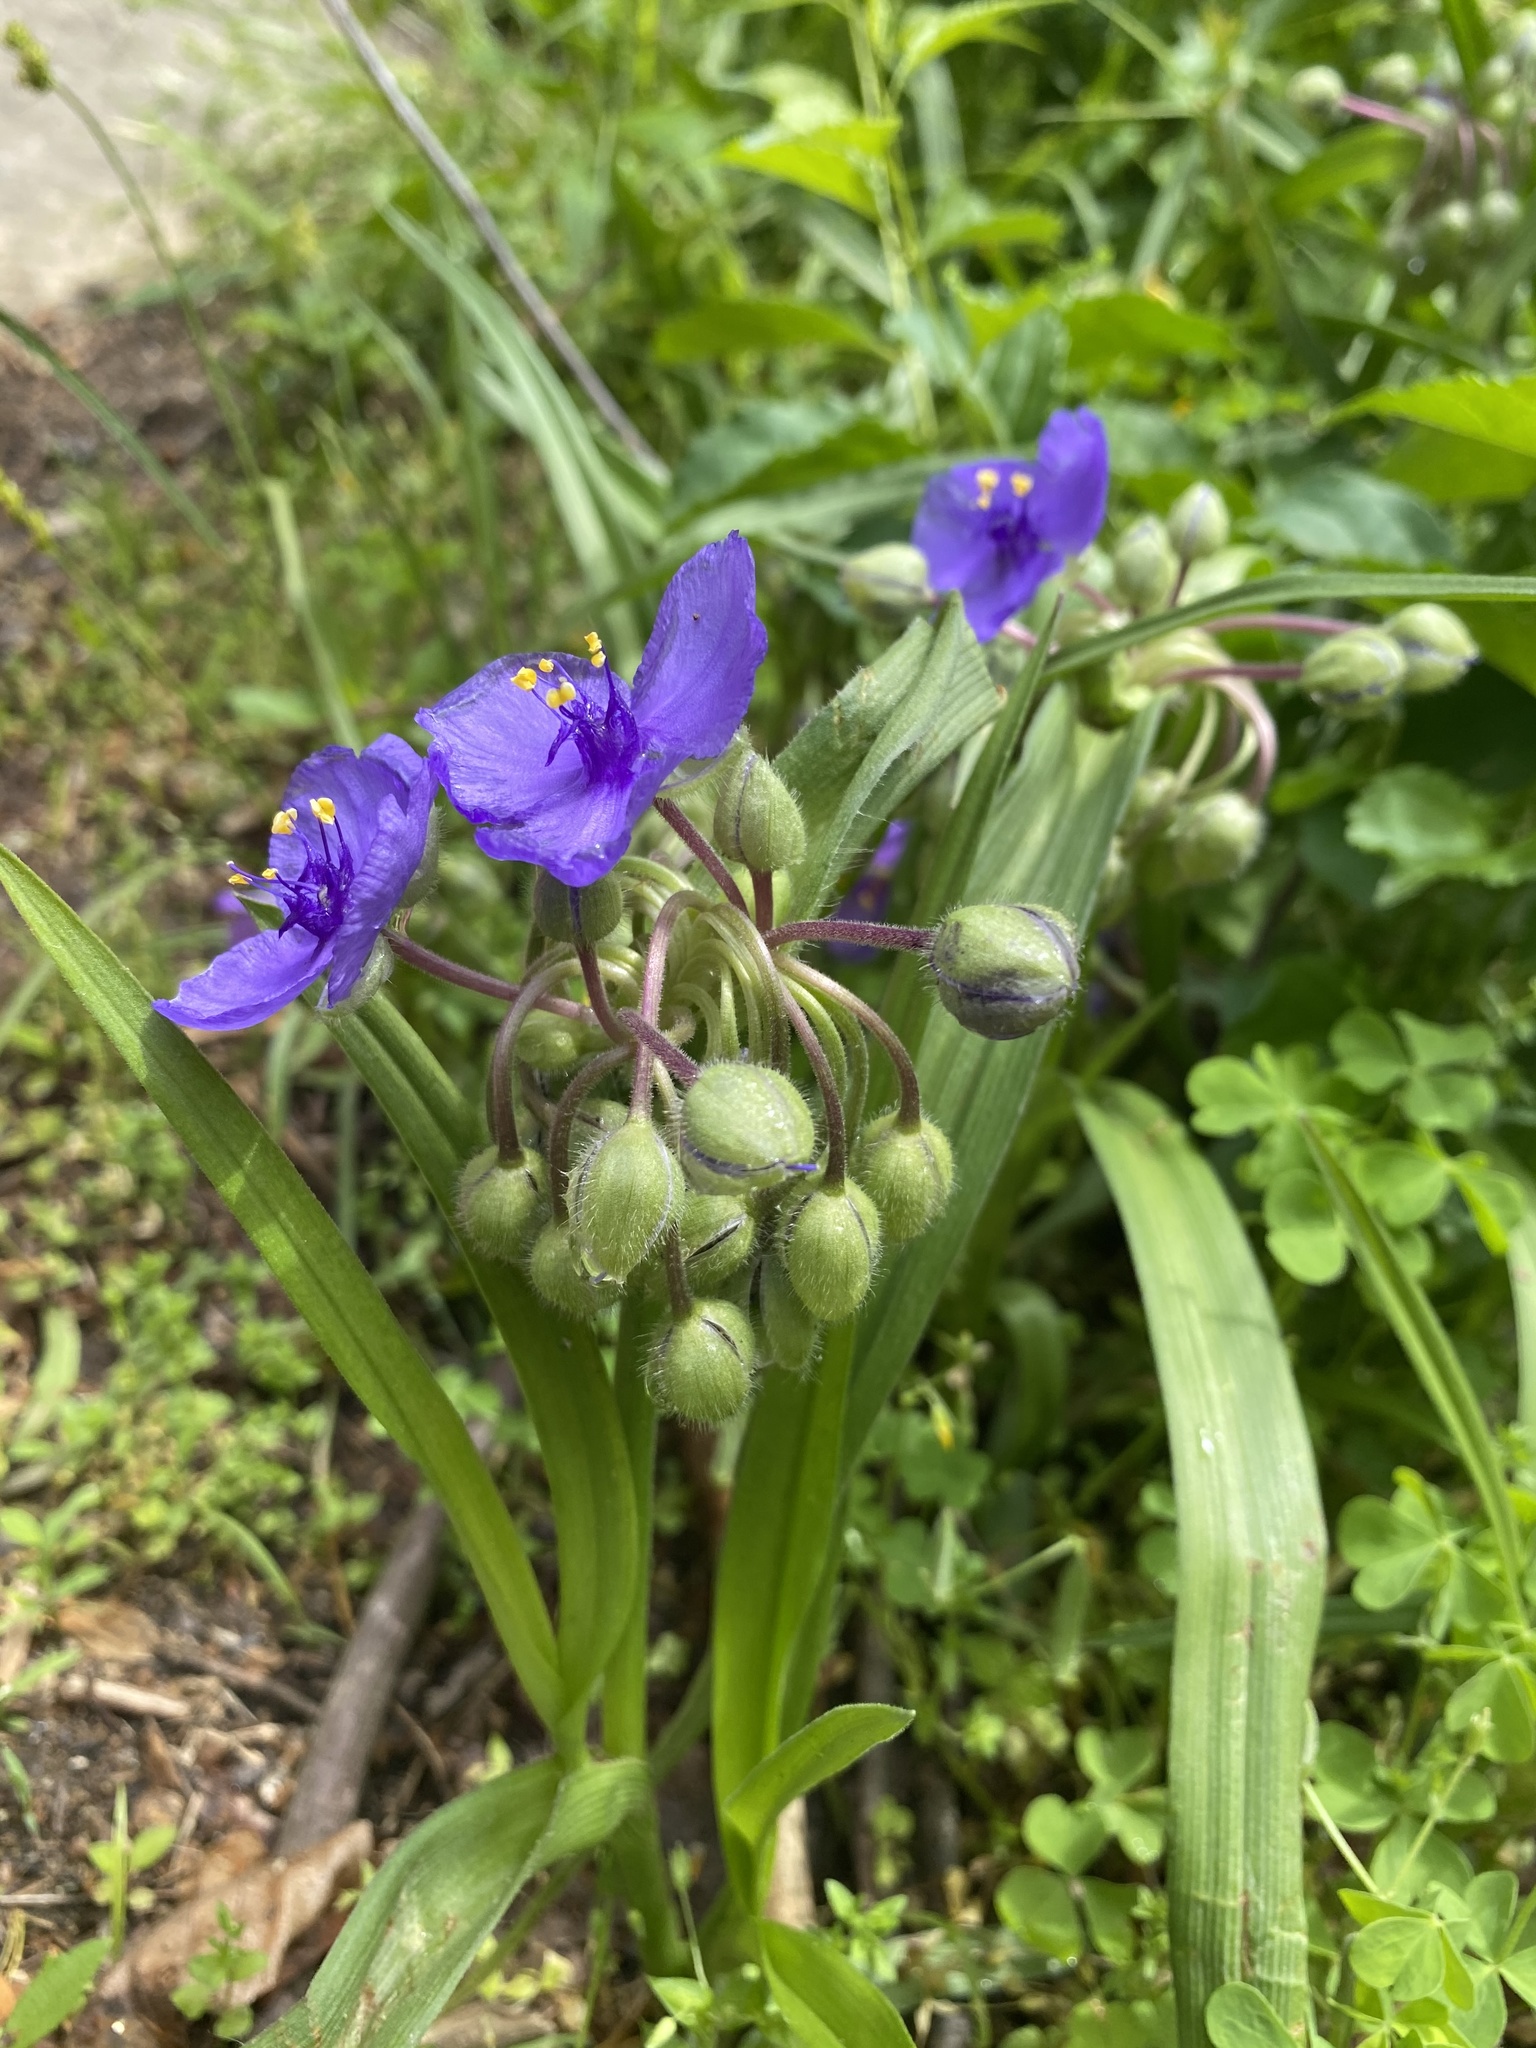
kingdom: Plantae
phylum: Tracheophyta
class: Liliopsida
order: Commelinales
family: Commelinaceae
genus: Tradescantia
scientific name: Tradescantia virginiana
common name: Spiderwort
